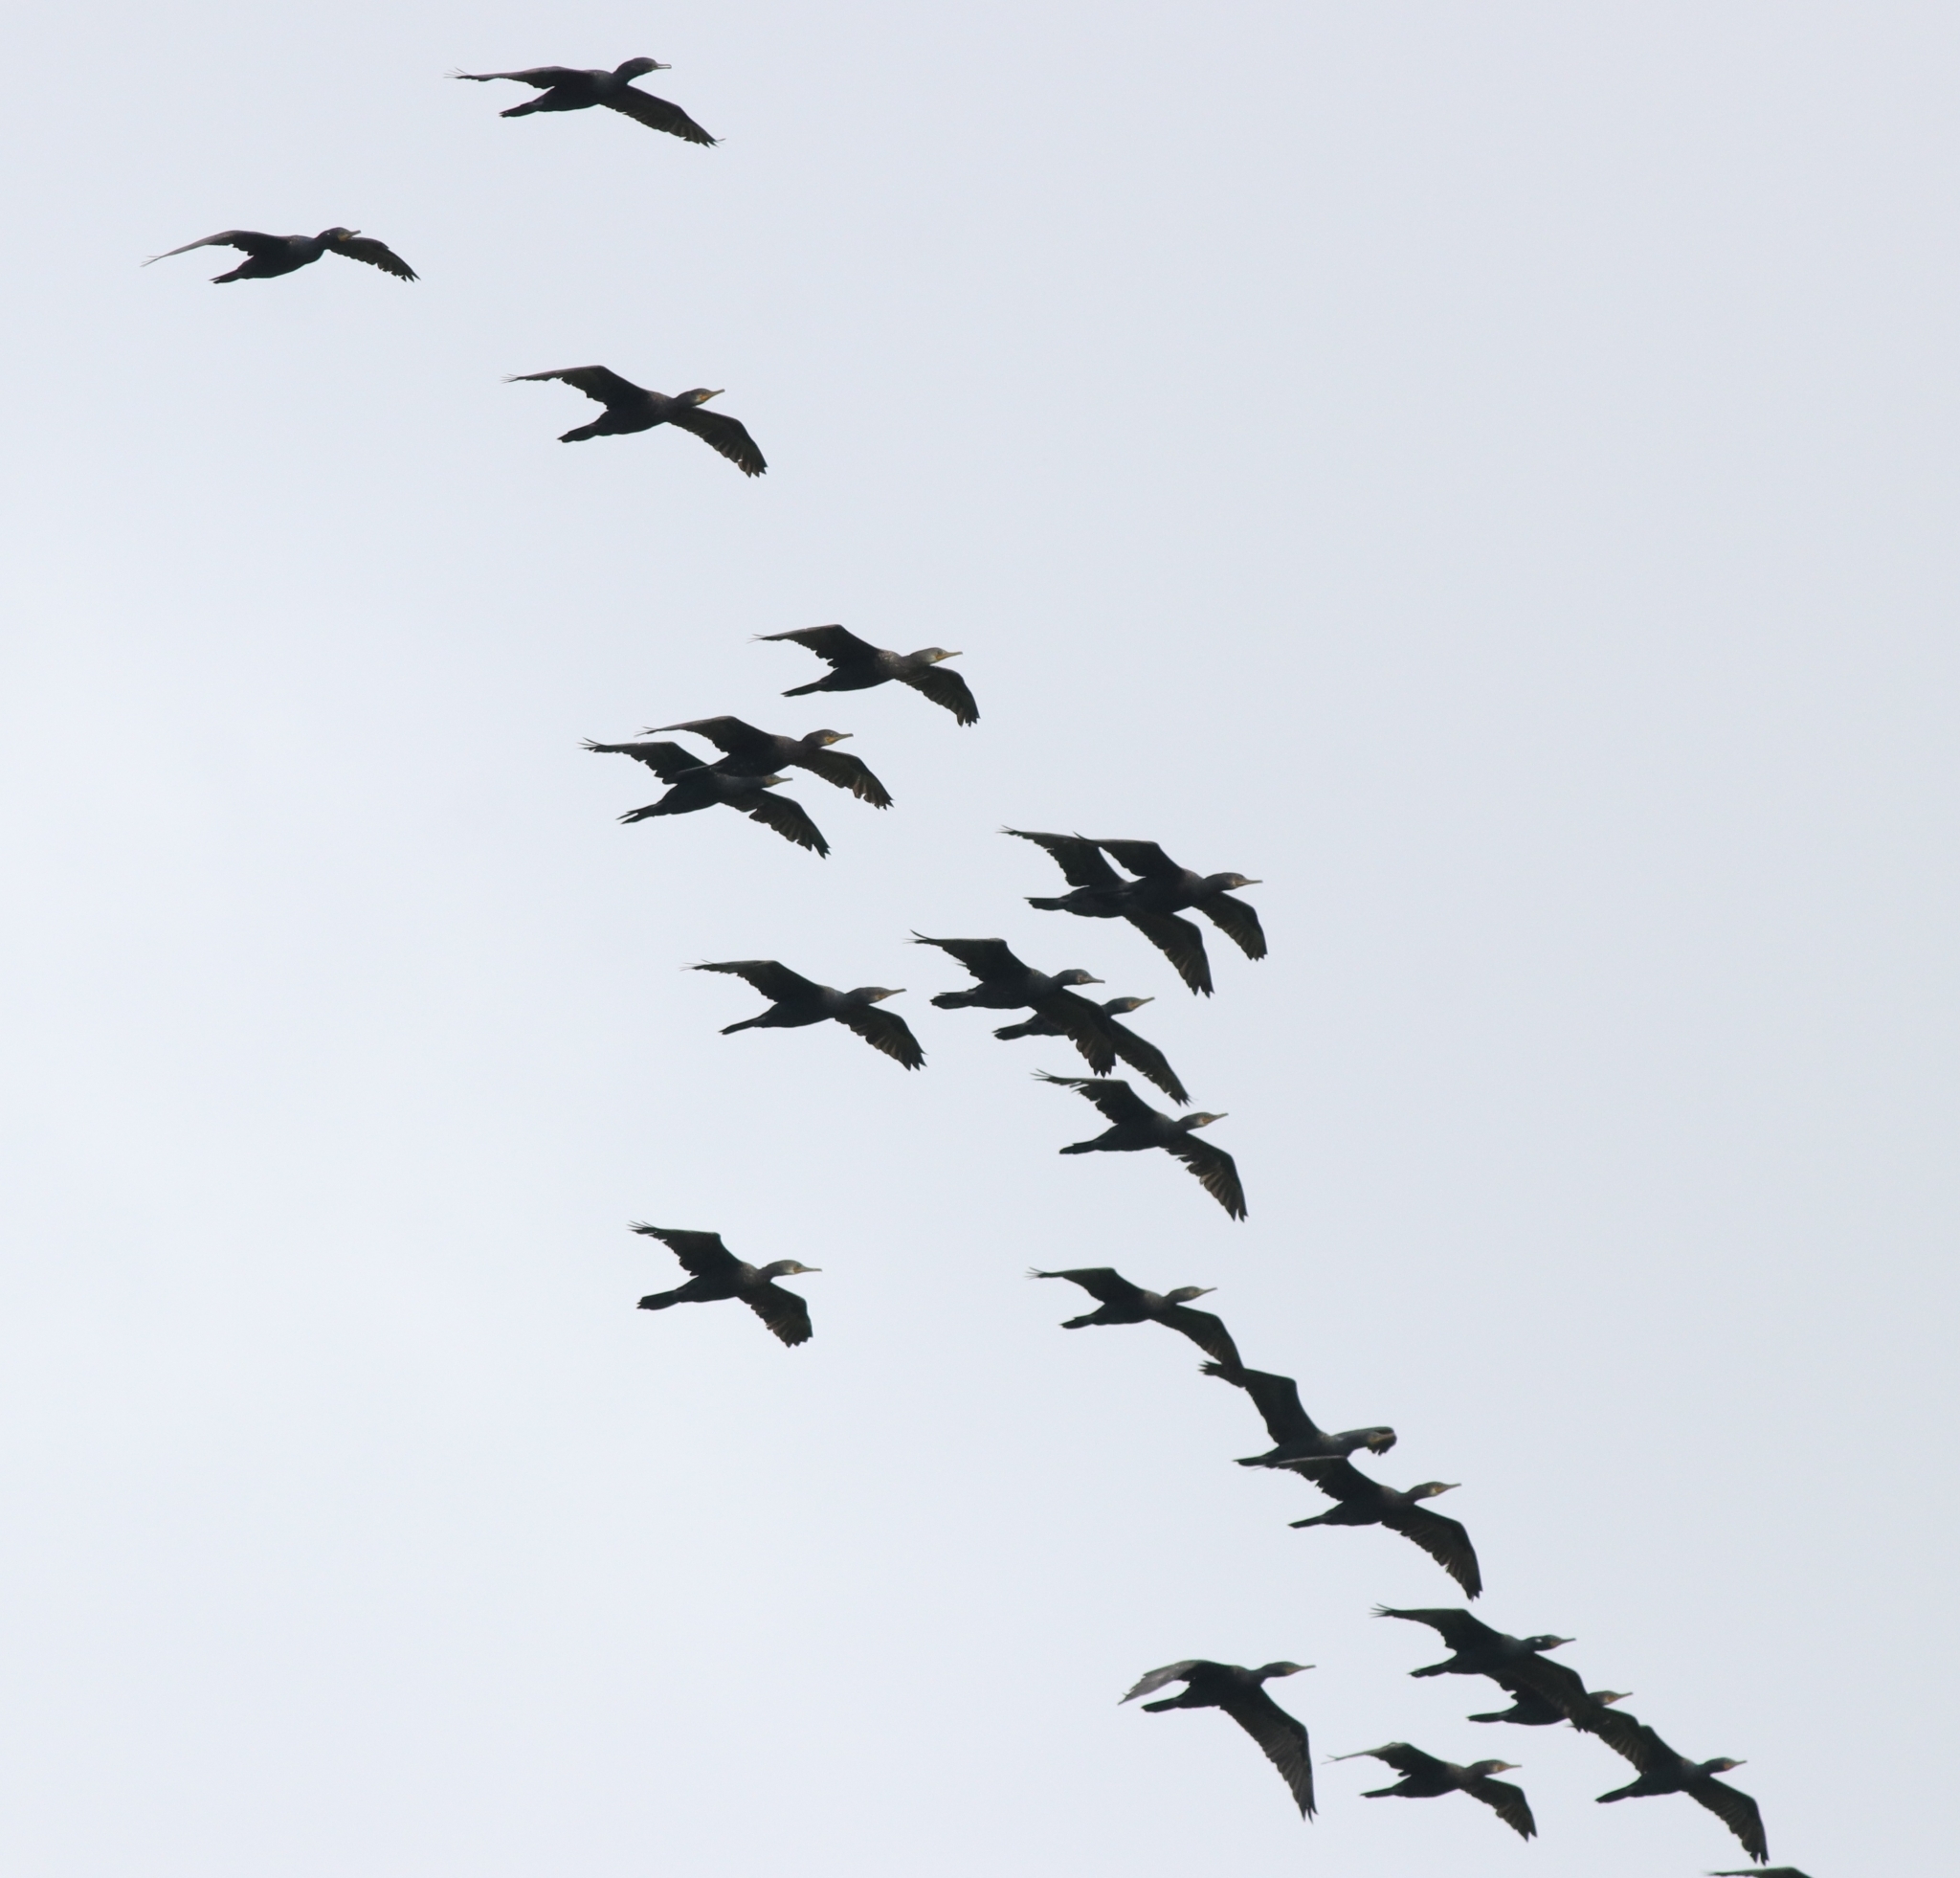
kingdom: Animalia
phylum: Chordata
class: Aves
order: Suliformes
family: Phalacrocoracidae
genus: Phalacrocorax
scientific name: Phalacrocorax fuscicollis
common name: Indian cormorant
